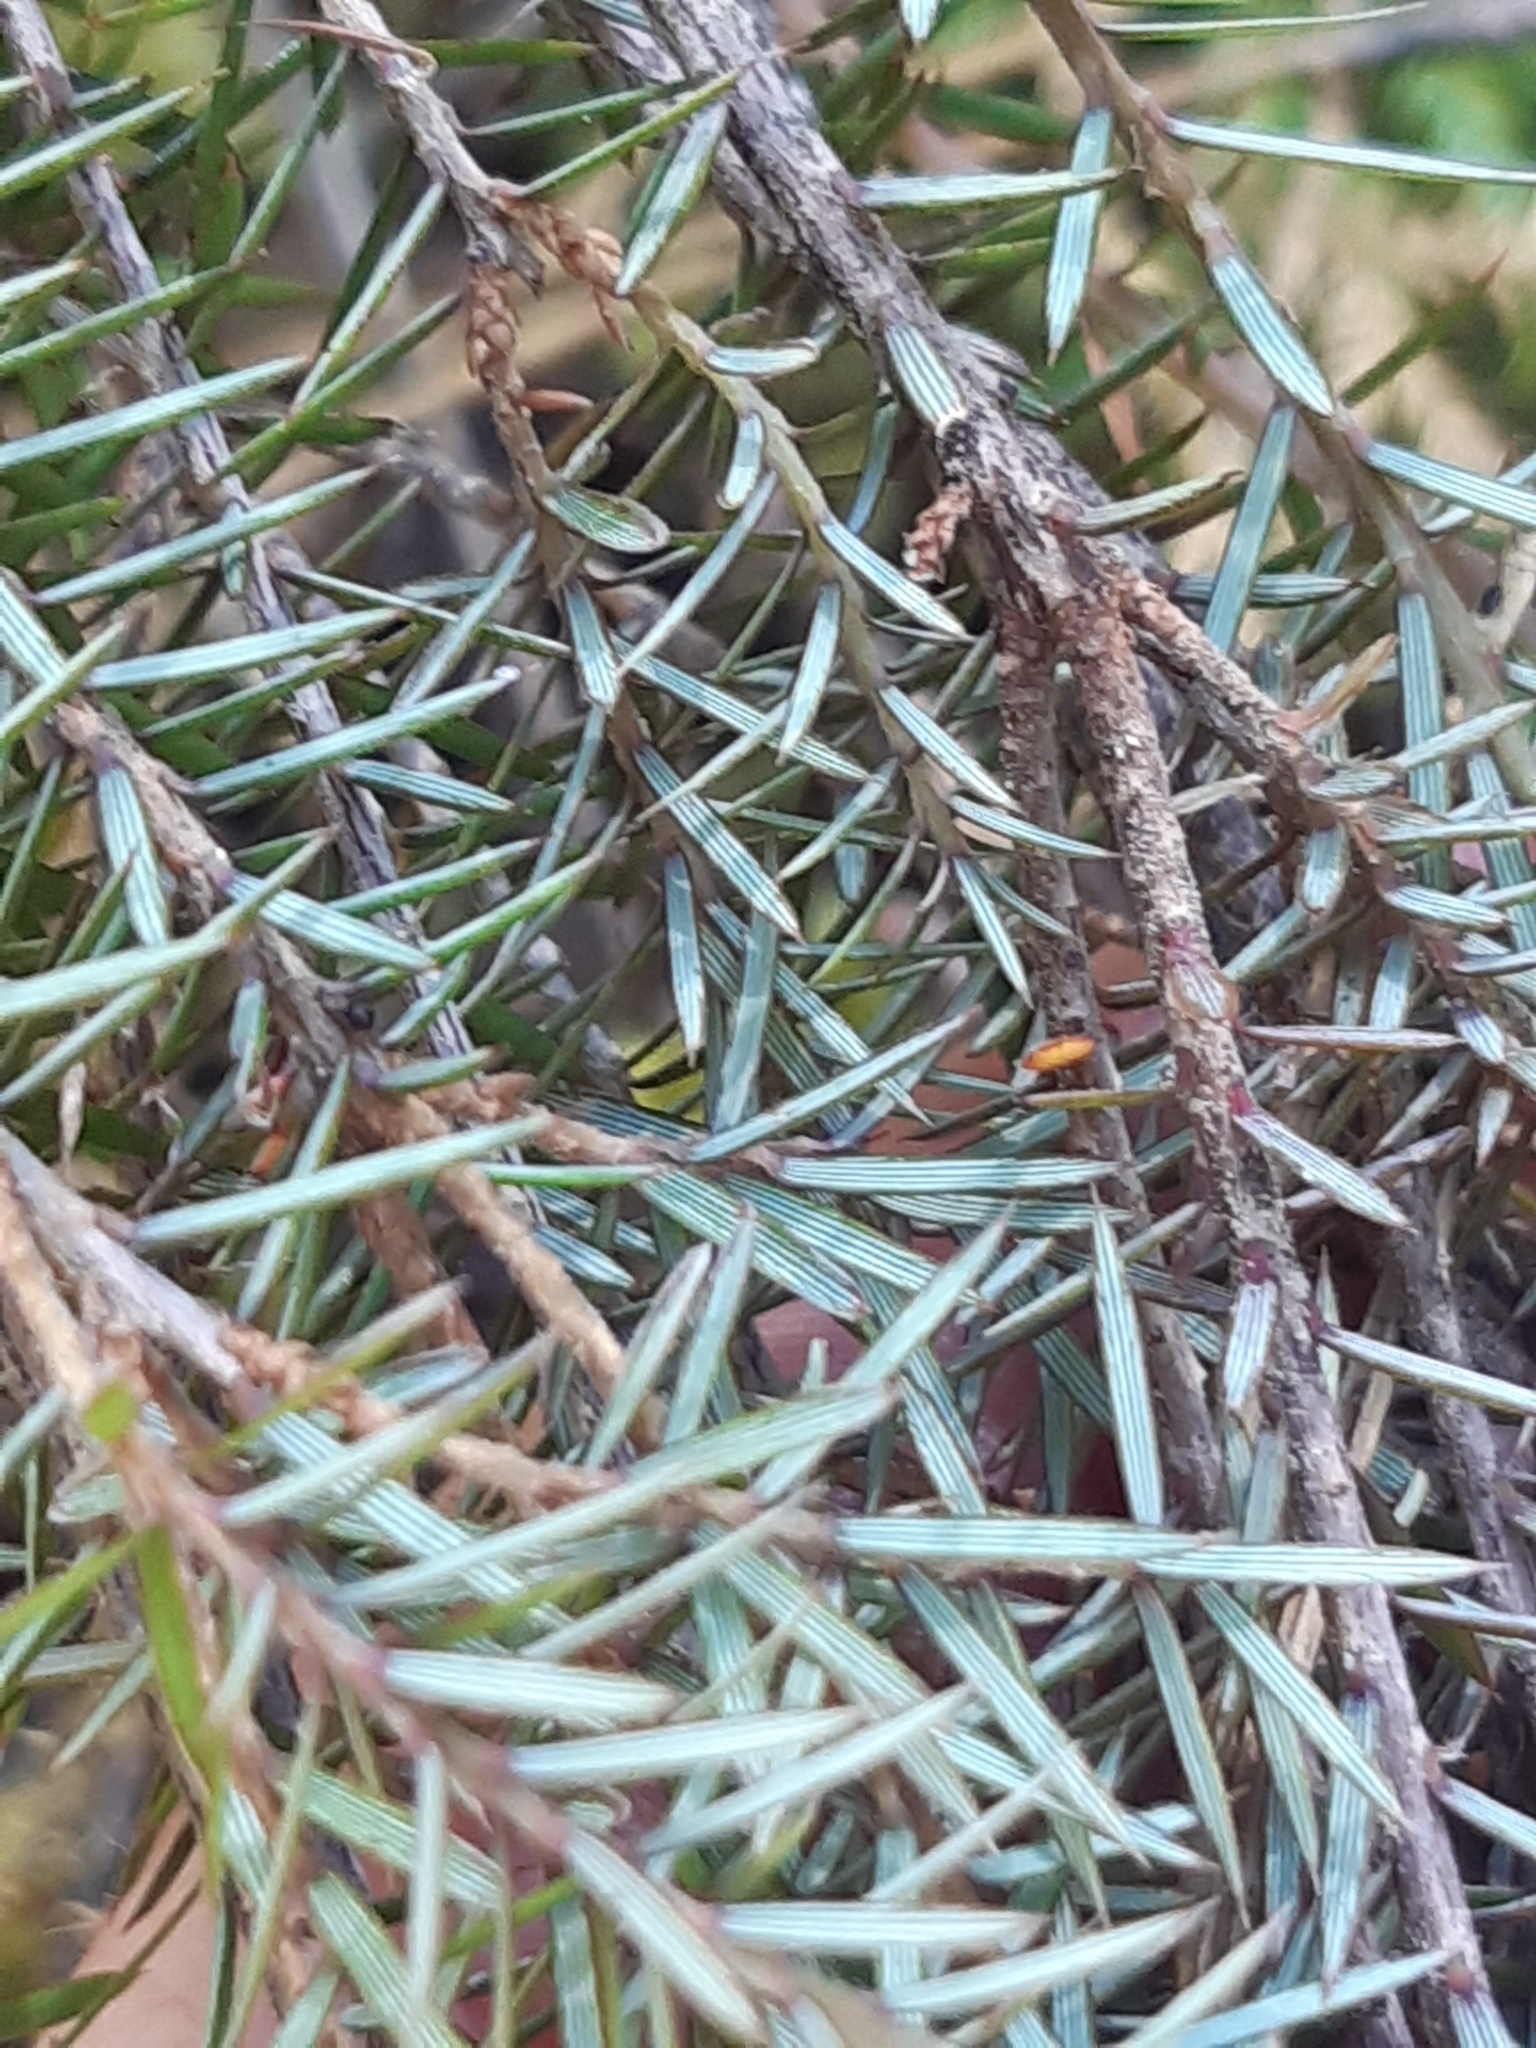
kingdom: Plantae
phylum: Tracheophyta
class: Magnoliopsida
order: Ericales
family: Ericaceae
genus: Leptecophylla
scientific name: Leptecophylla juniperina
